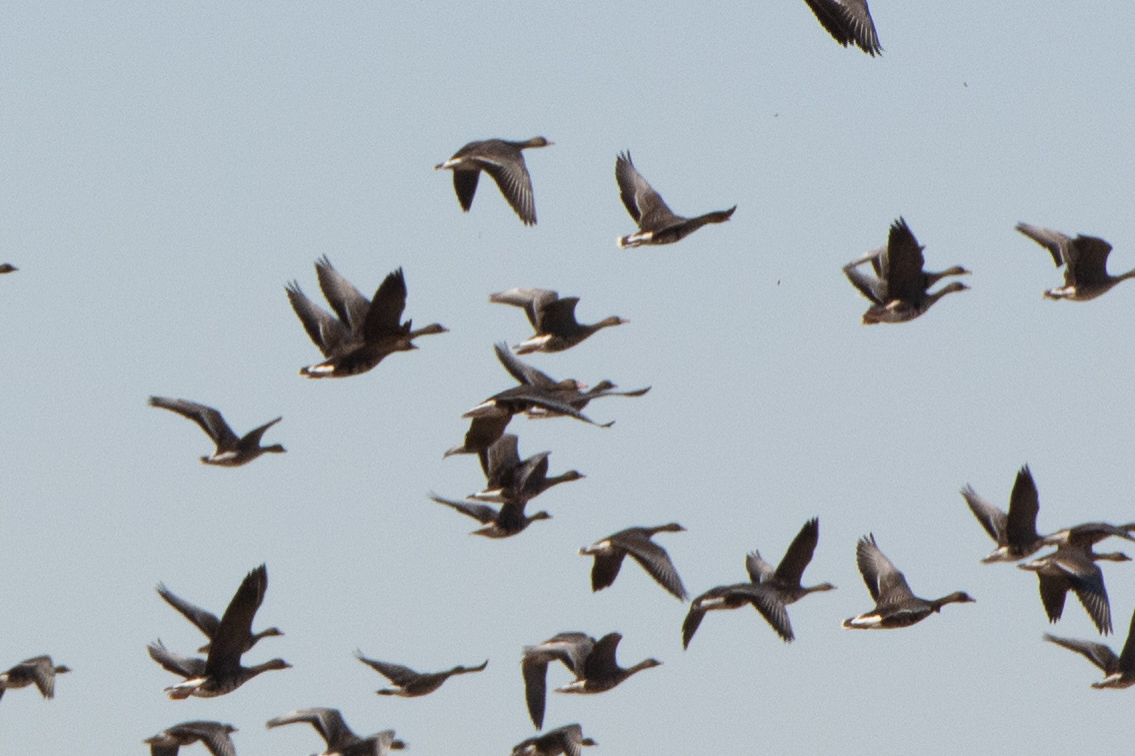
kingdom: Animalia
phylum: Chordata
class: Aves
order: Anseriformes
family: Anatidae
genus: Anser
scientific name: Anser albifrons
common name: Greater white-fronted goose
